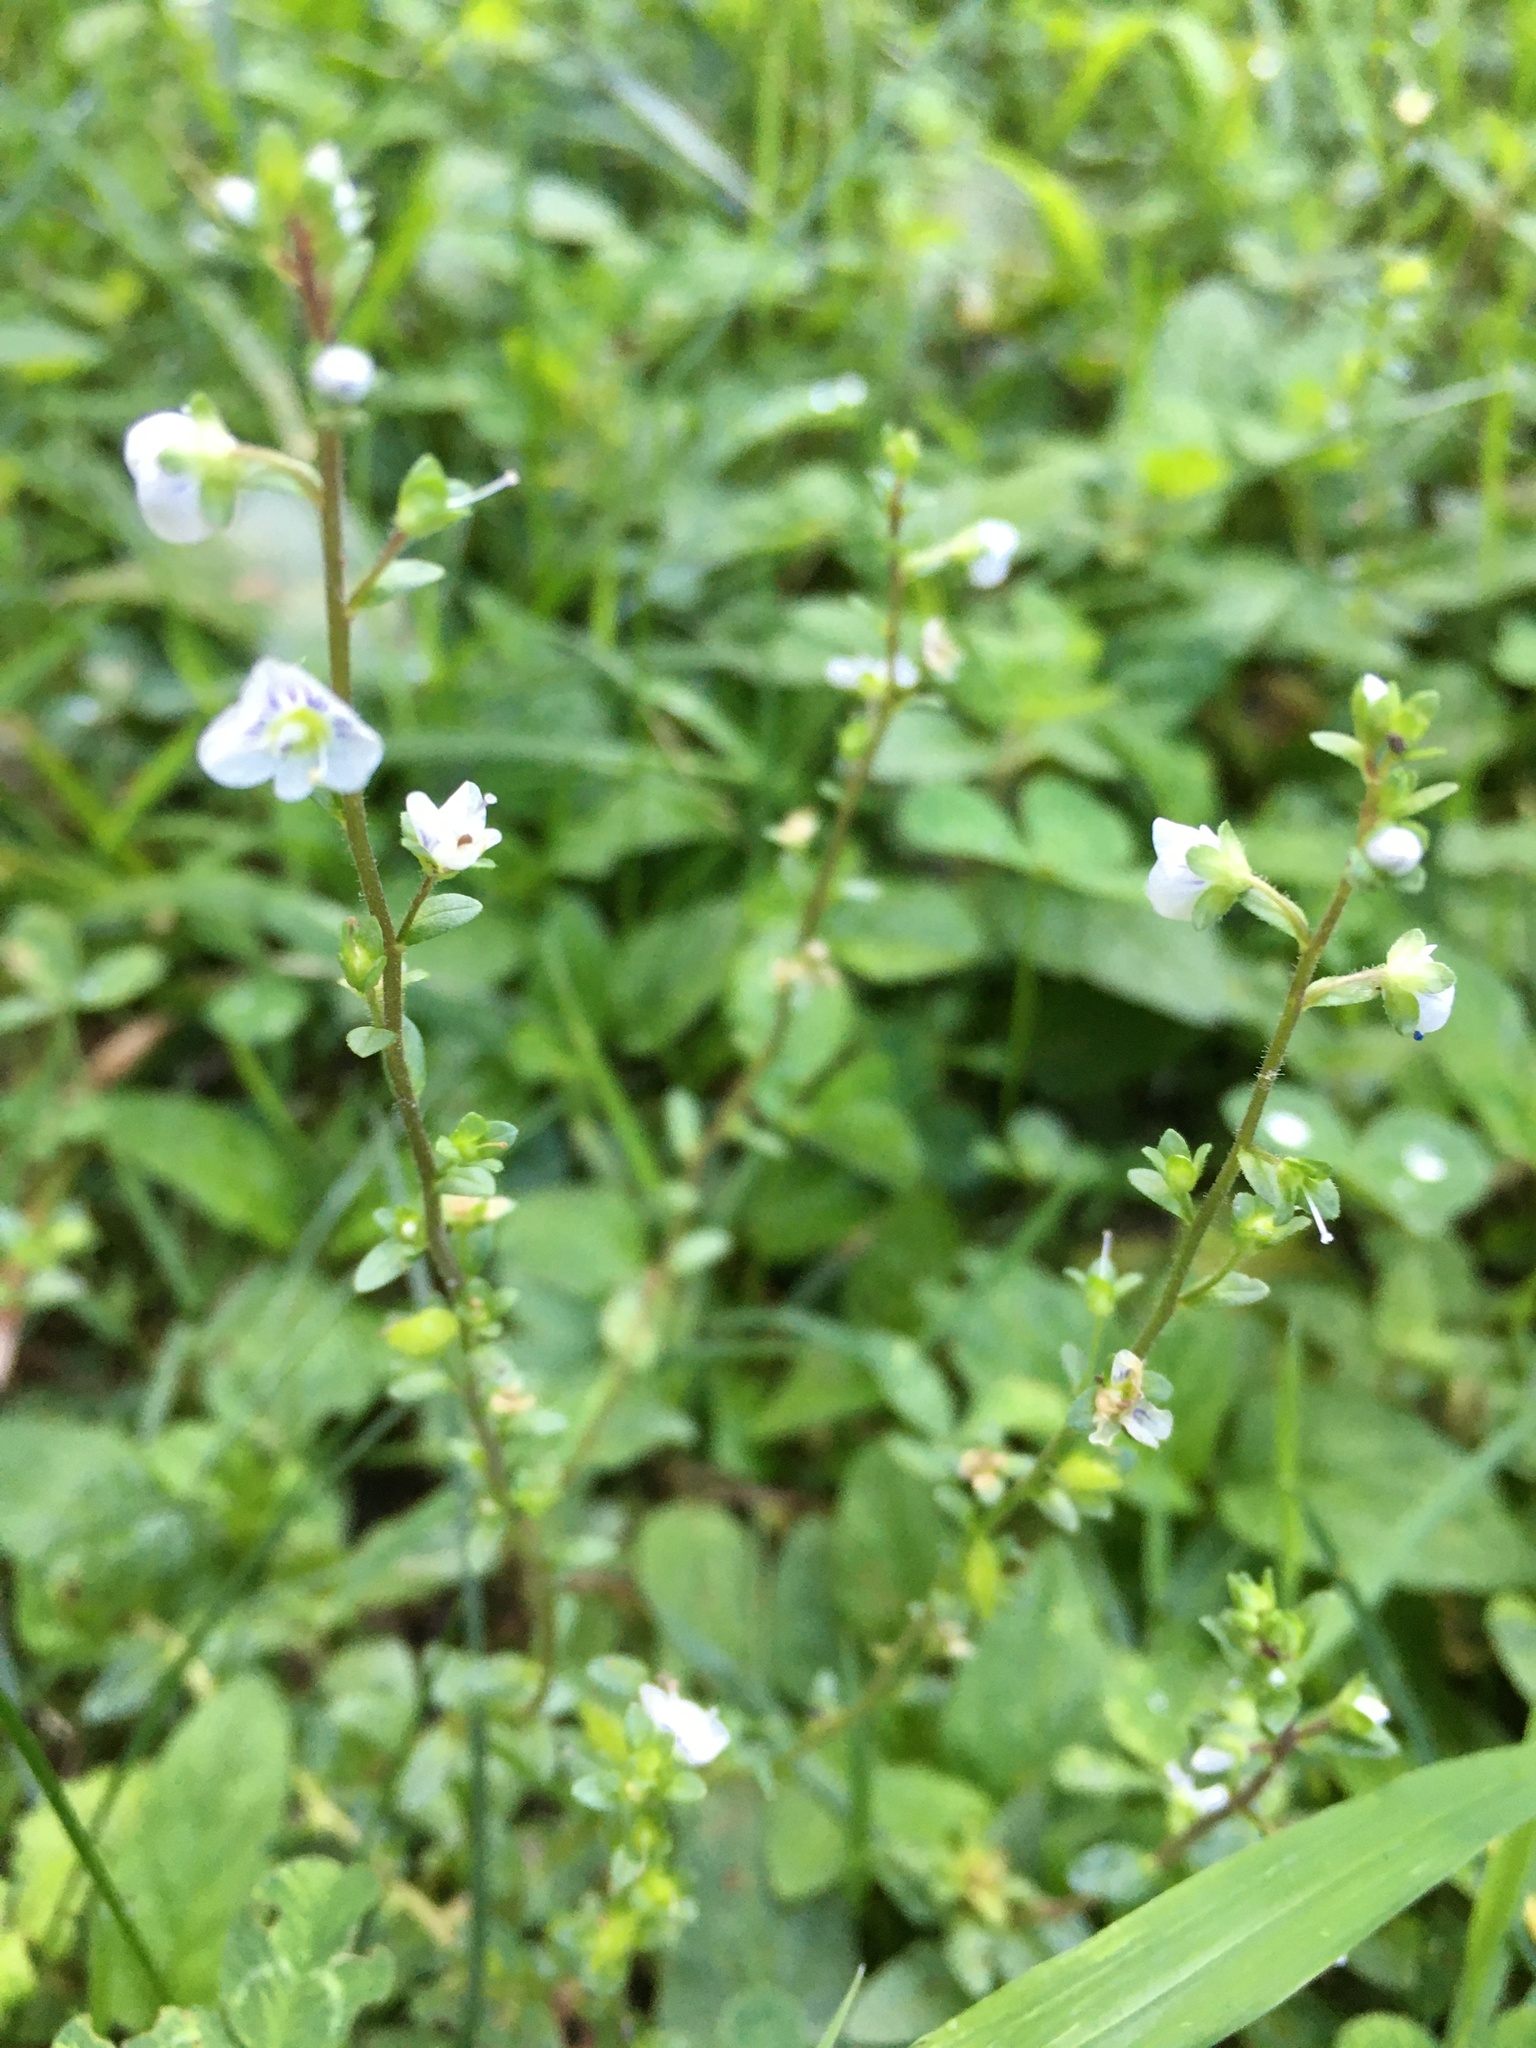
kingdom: Plantae
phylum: Tracheophyta
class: Magnoliopsida
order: Lamiales
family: Plantaginaceae
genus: Veronica
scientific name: Veronica serpyllifolia
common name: Thyme-leaved speedwell
